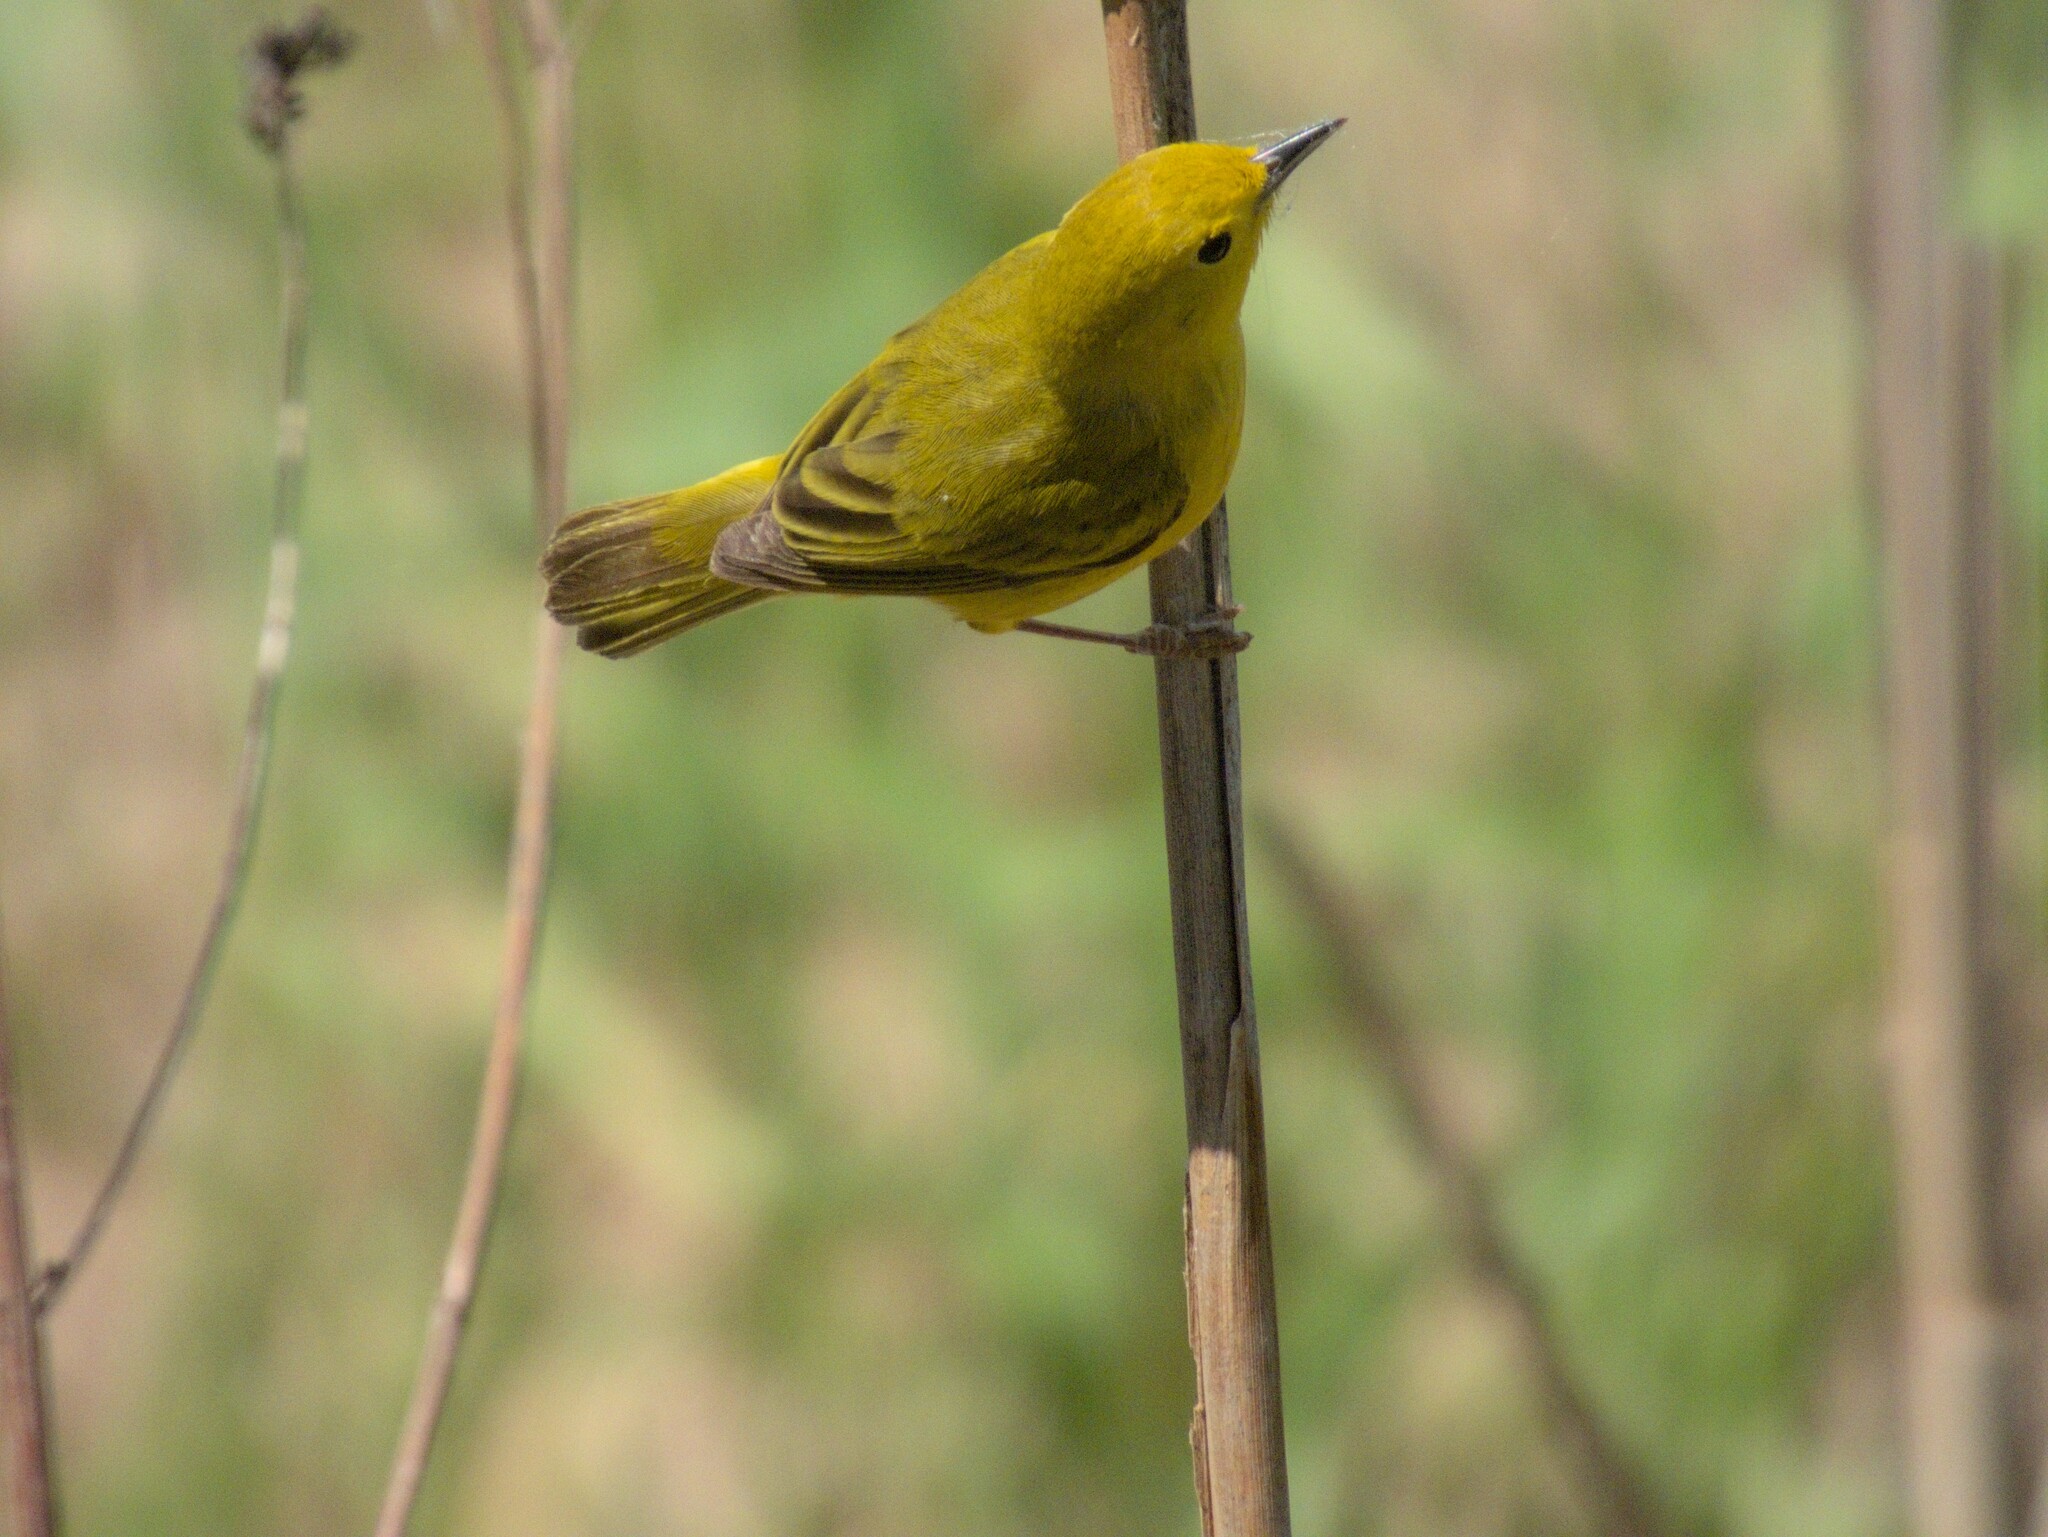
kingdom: Animalia
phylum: Chordata
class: Aves
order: Passeriformes
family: Parulidae
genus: Setophaga
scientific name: Setophaga petechia
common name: Yellow warbler
